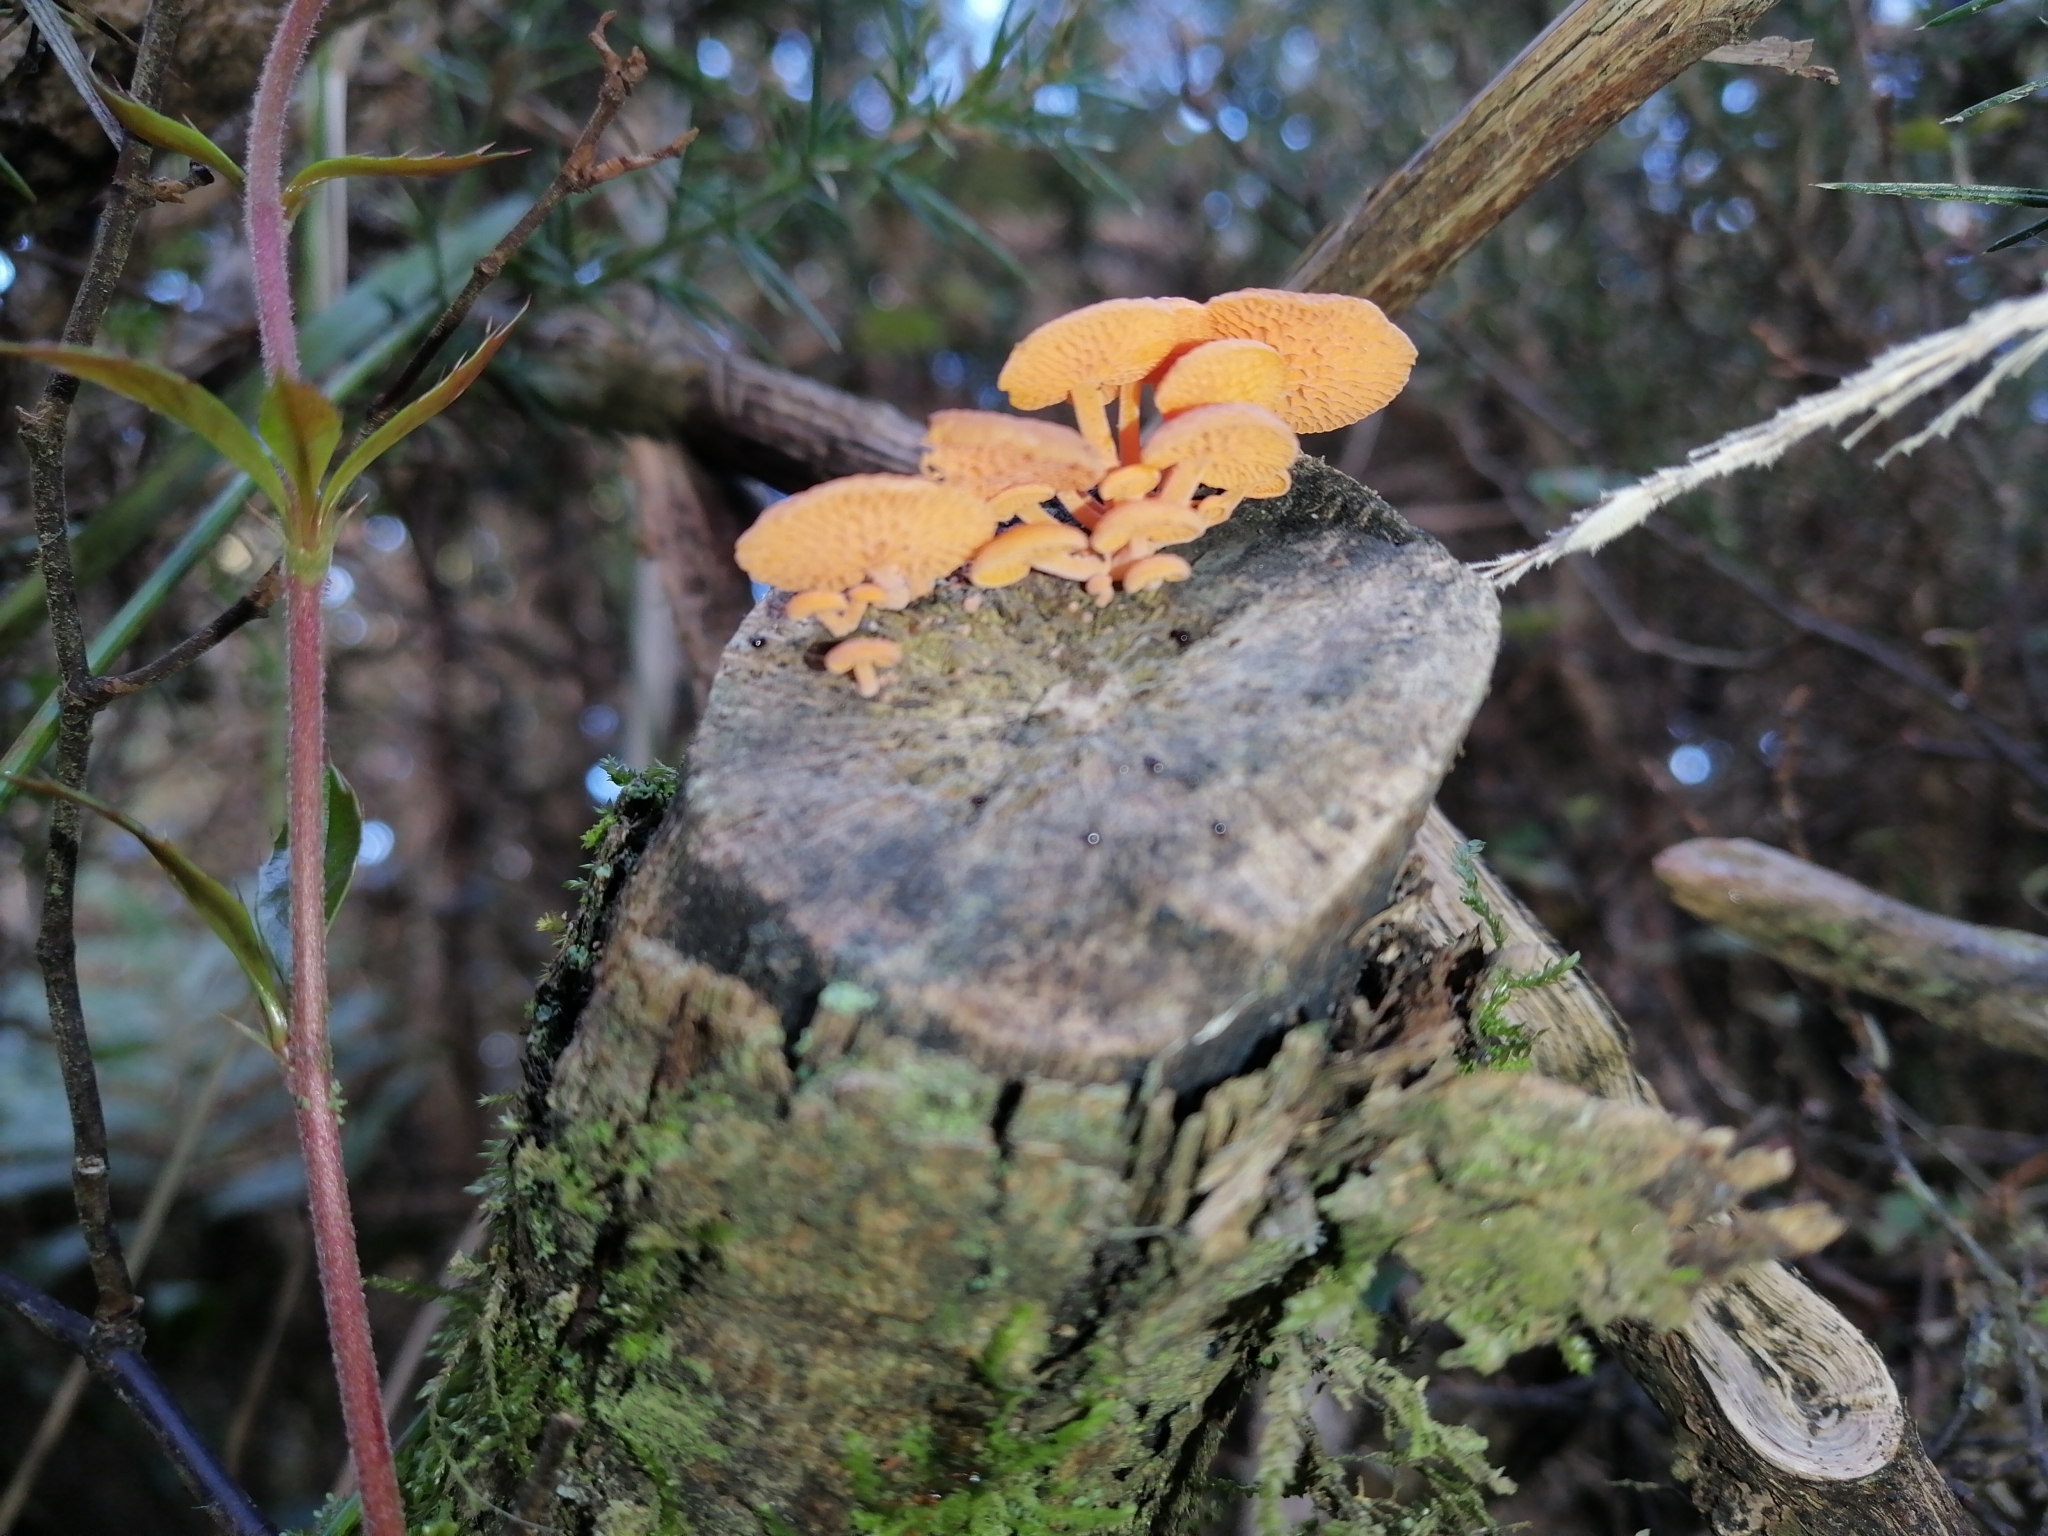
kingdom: Fungi
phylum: Basidiomycota
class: Agaricomycetes
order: Agaricales
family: Mycenaceae
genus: Favolaschia
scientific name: Favolaschia claudopus
